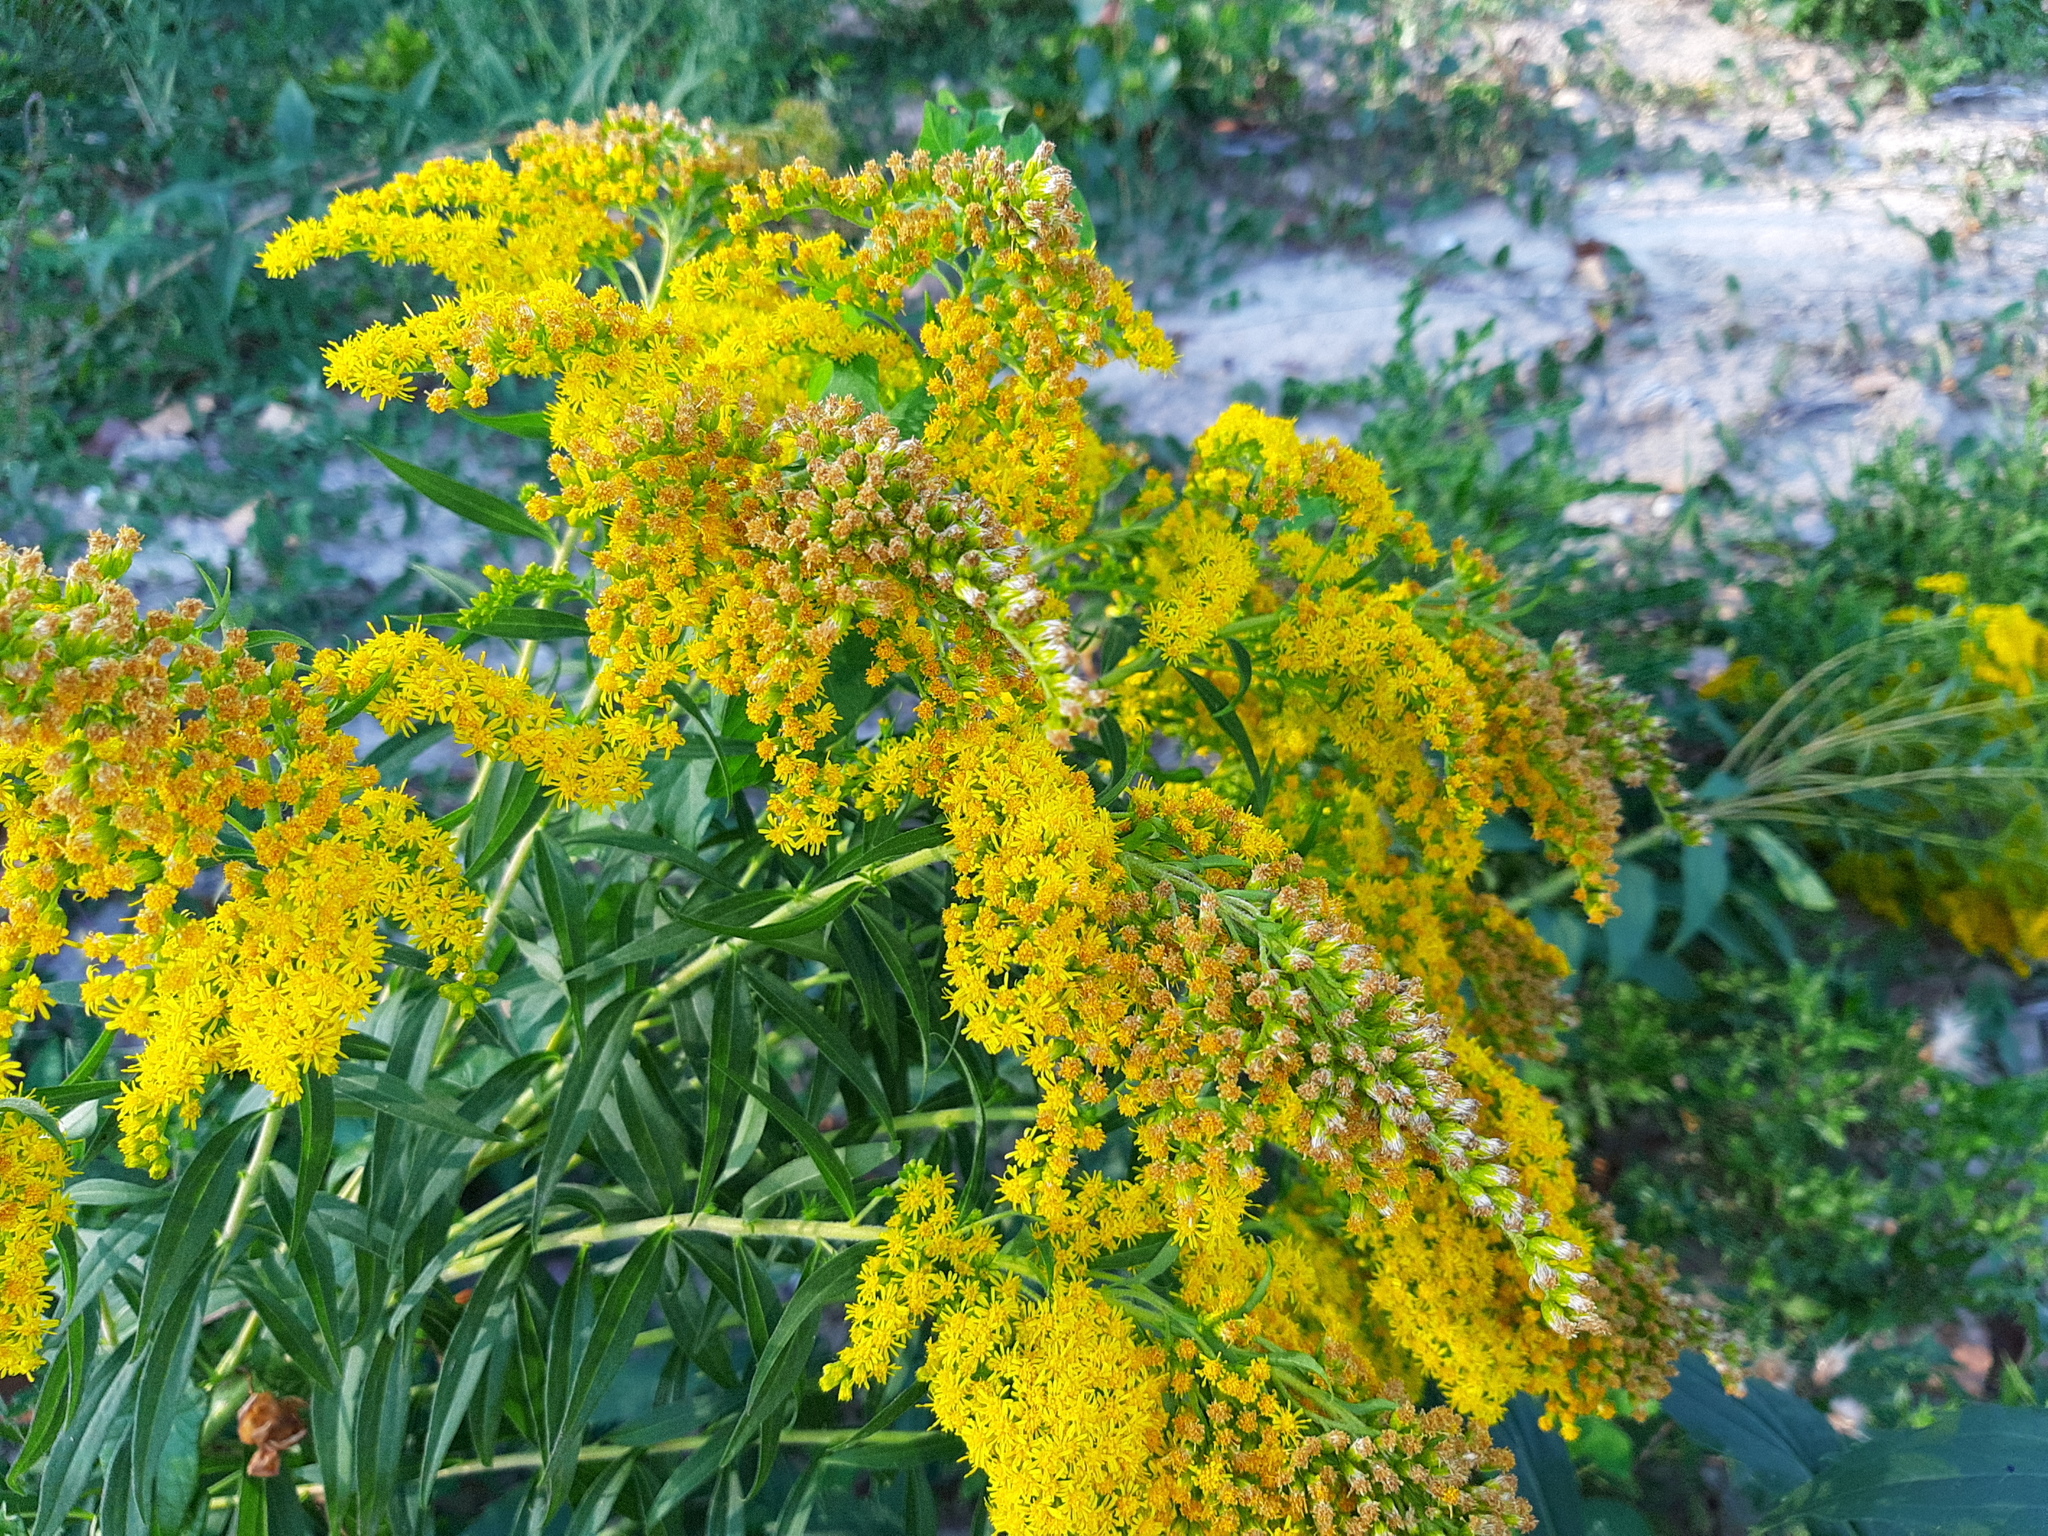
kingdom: Plantae
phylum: Tracheophyta
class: Magnoliopsida
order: Asterales
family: Asteraceae
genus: Solidago
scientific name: Solidago gigantea
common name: Giant goldenrod
